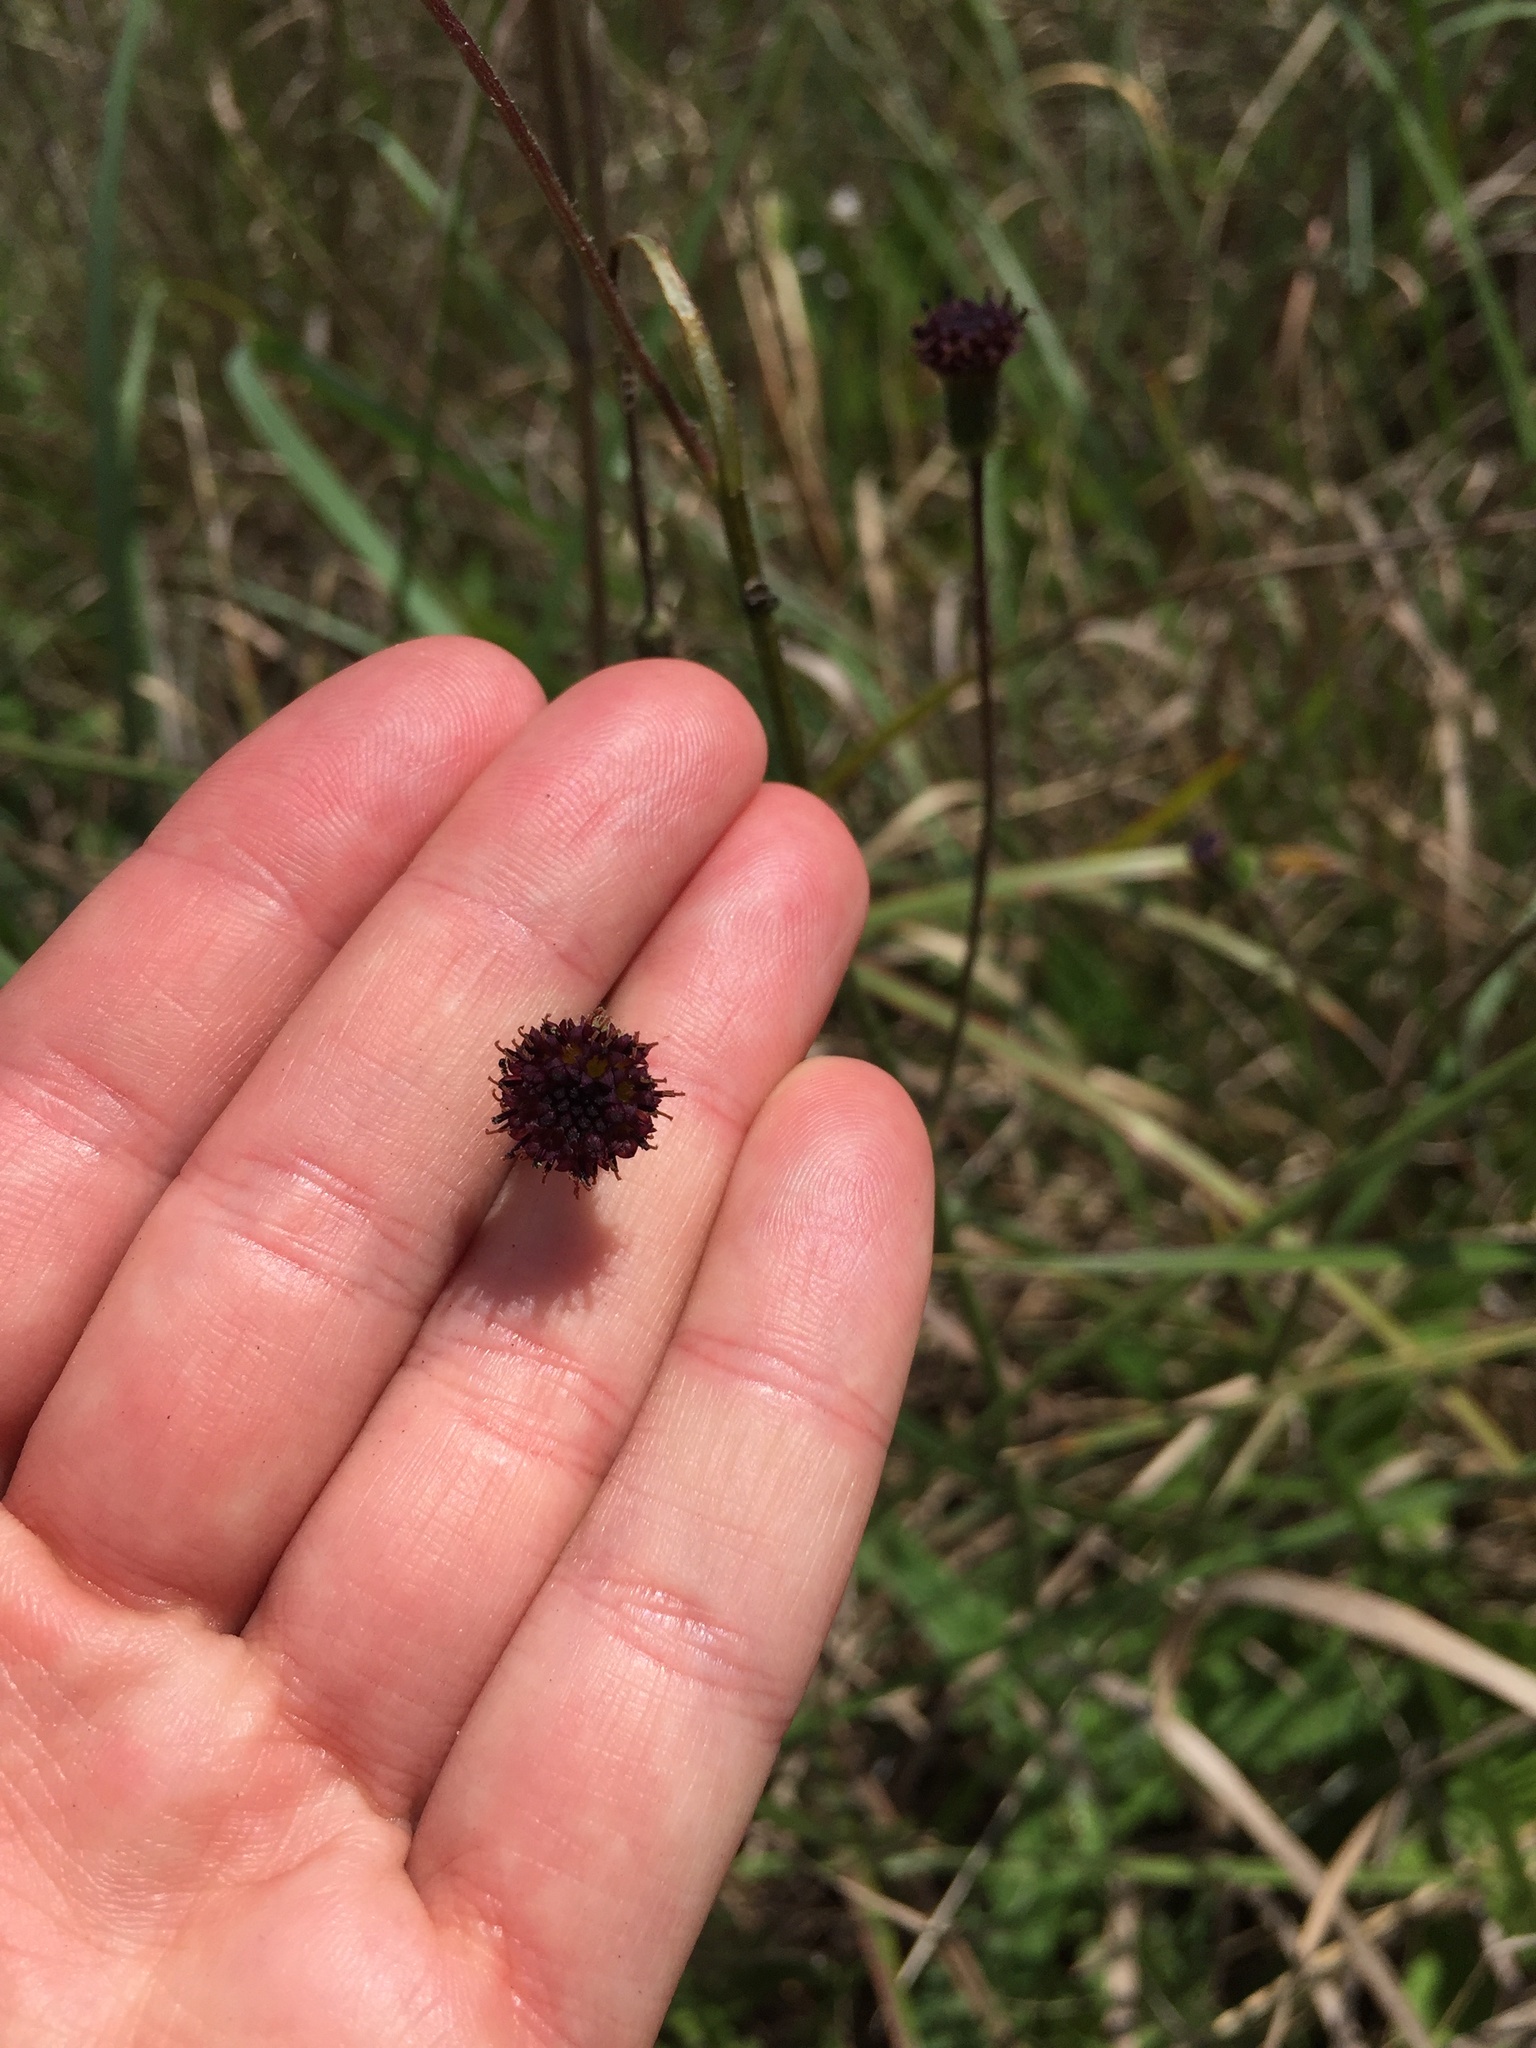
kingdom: Plantae
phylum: Tracheophyta
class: Magnoliopsida
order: Asterales
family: Asteraceae
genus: Senecio
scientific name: Senecio variabilis
